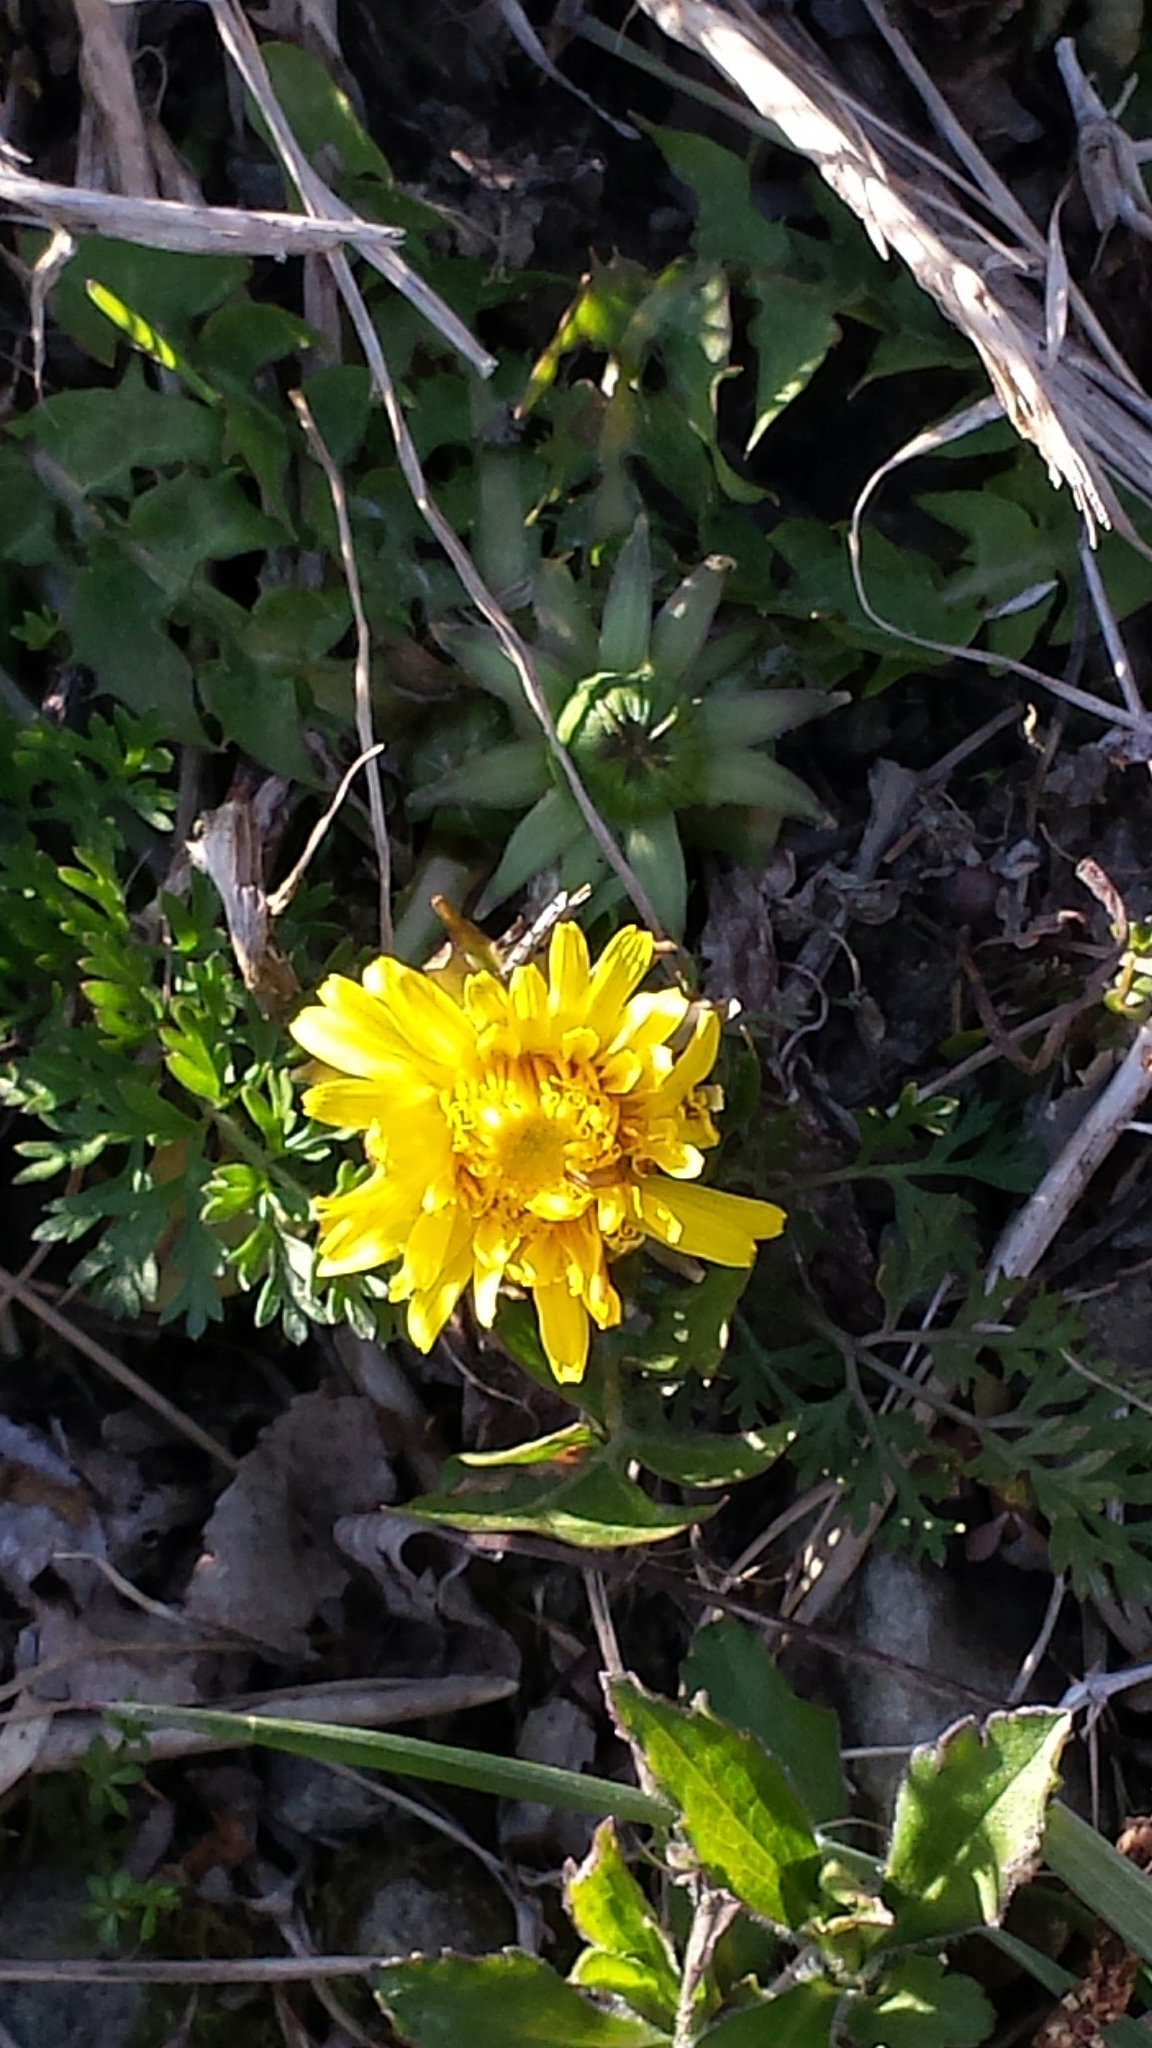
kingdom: Plantae
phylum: Tracheophyta
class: Magnoliopsida
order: Asterales
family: Asteraceae
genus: Taraxacum
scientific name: Taraxacum officinale
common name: Common dandelion
